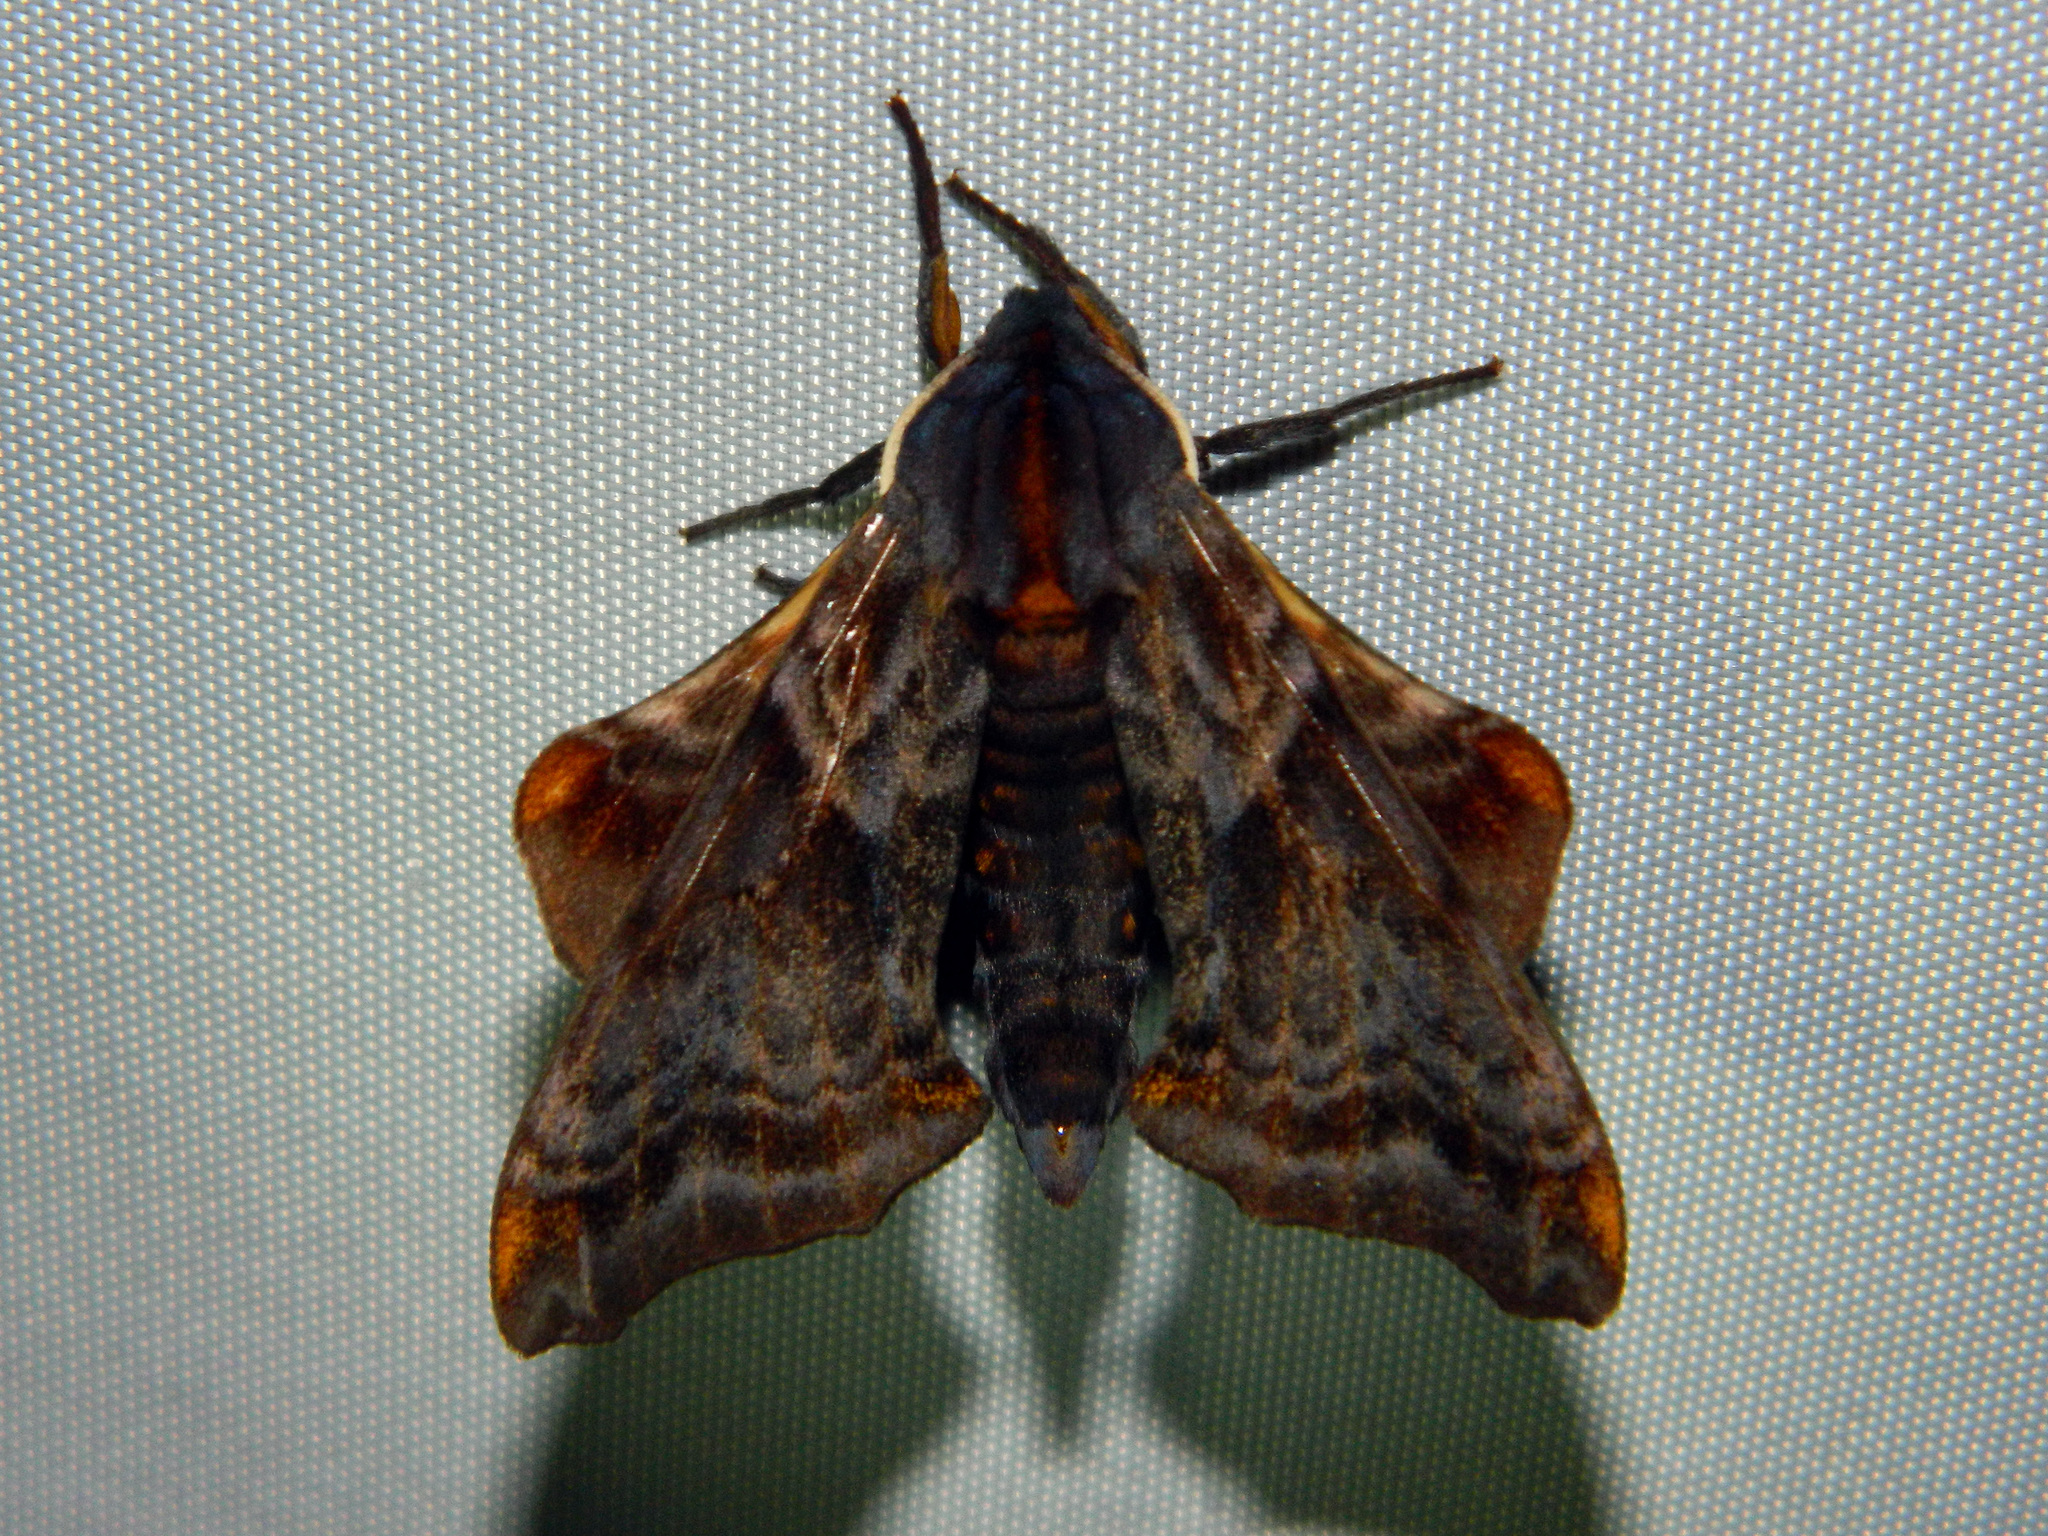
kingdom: Animalia
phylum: Arthropoda
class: Insecta
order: Lepidoptera
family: Sphingidae
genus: Paonias
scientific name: Paonias myops
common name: Small-eyed sphinx
